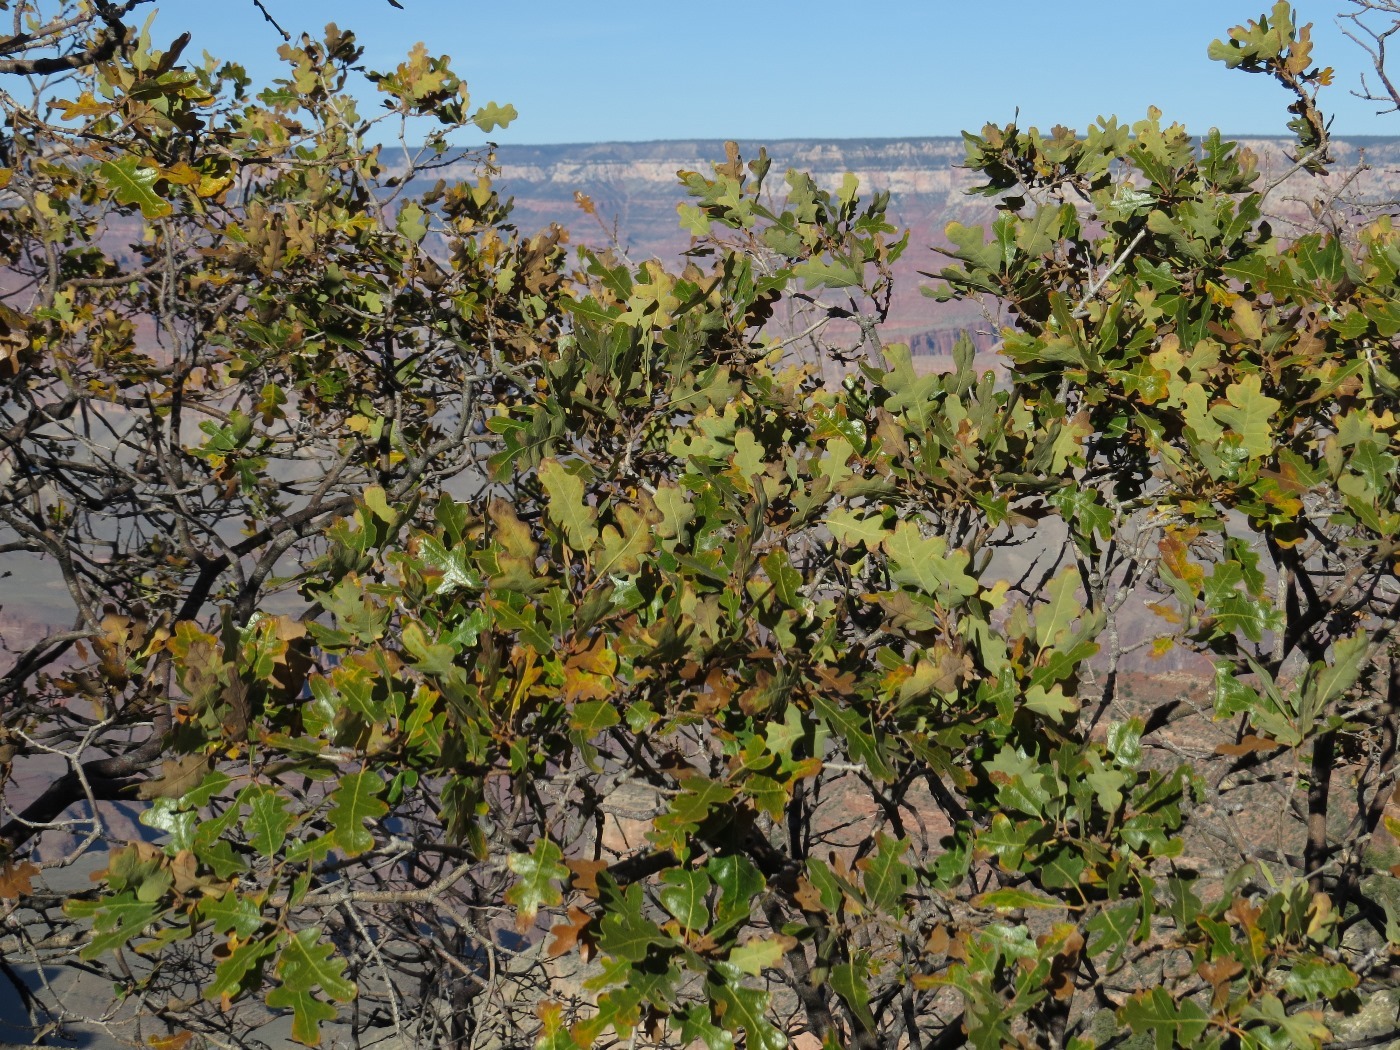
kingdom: Plantae
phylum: Tracheophyta
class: Magnoliopsida
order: Fagales
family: Fagaceae
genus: Quercus
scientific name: Quercus gambelii
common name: Gambel oak
